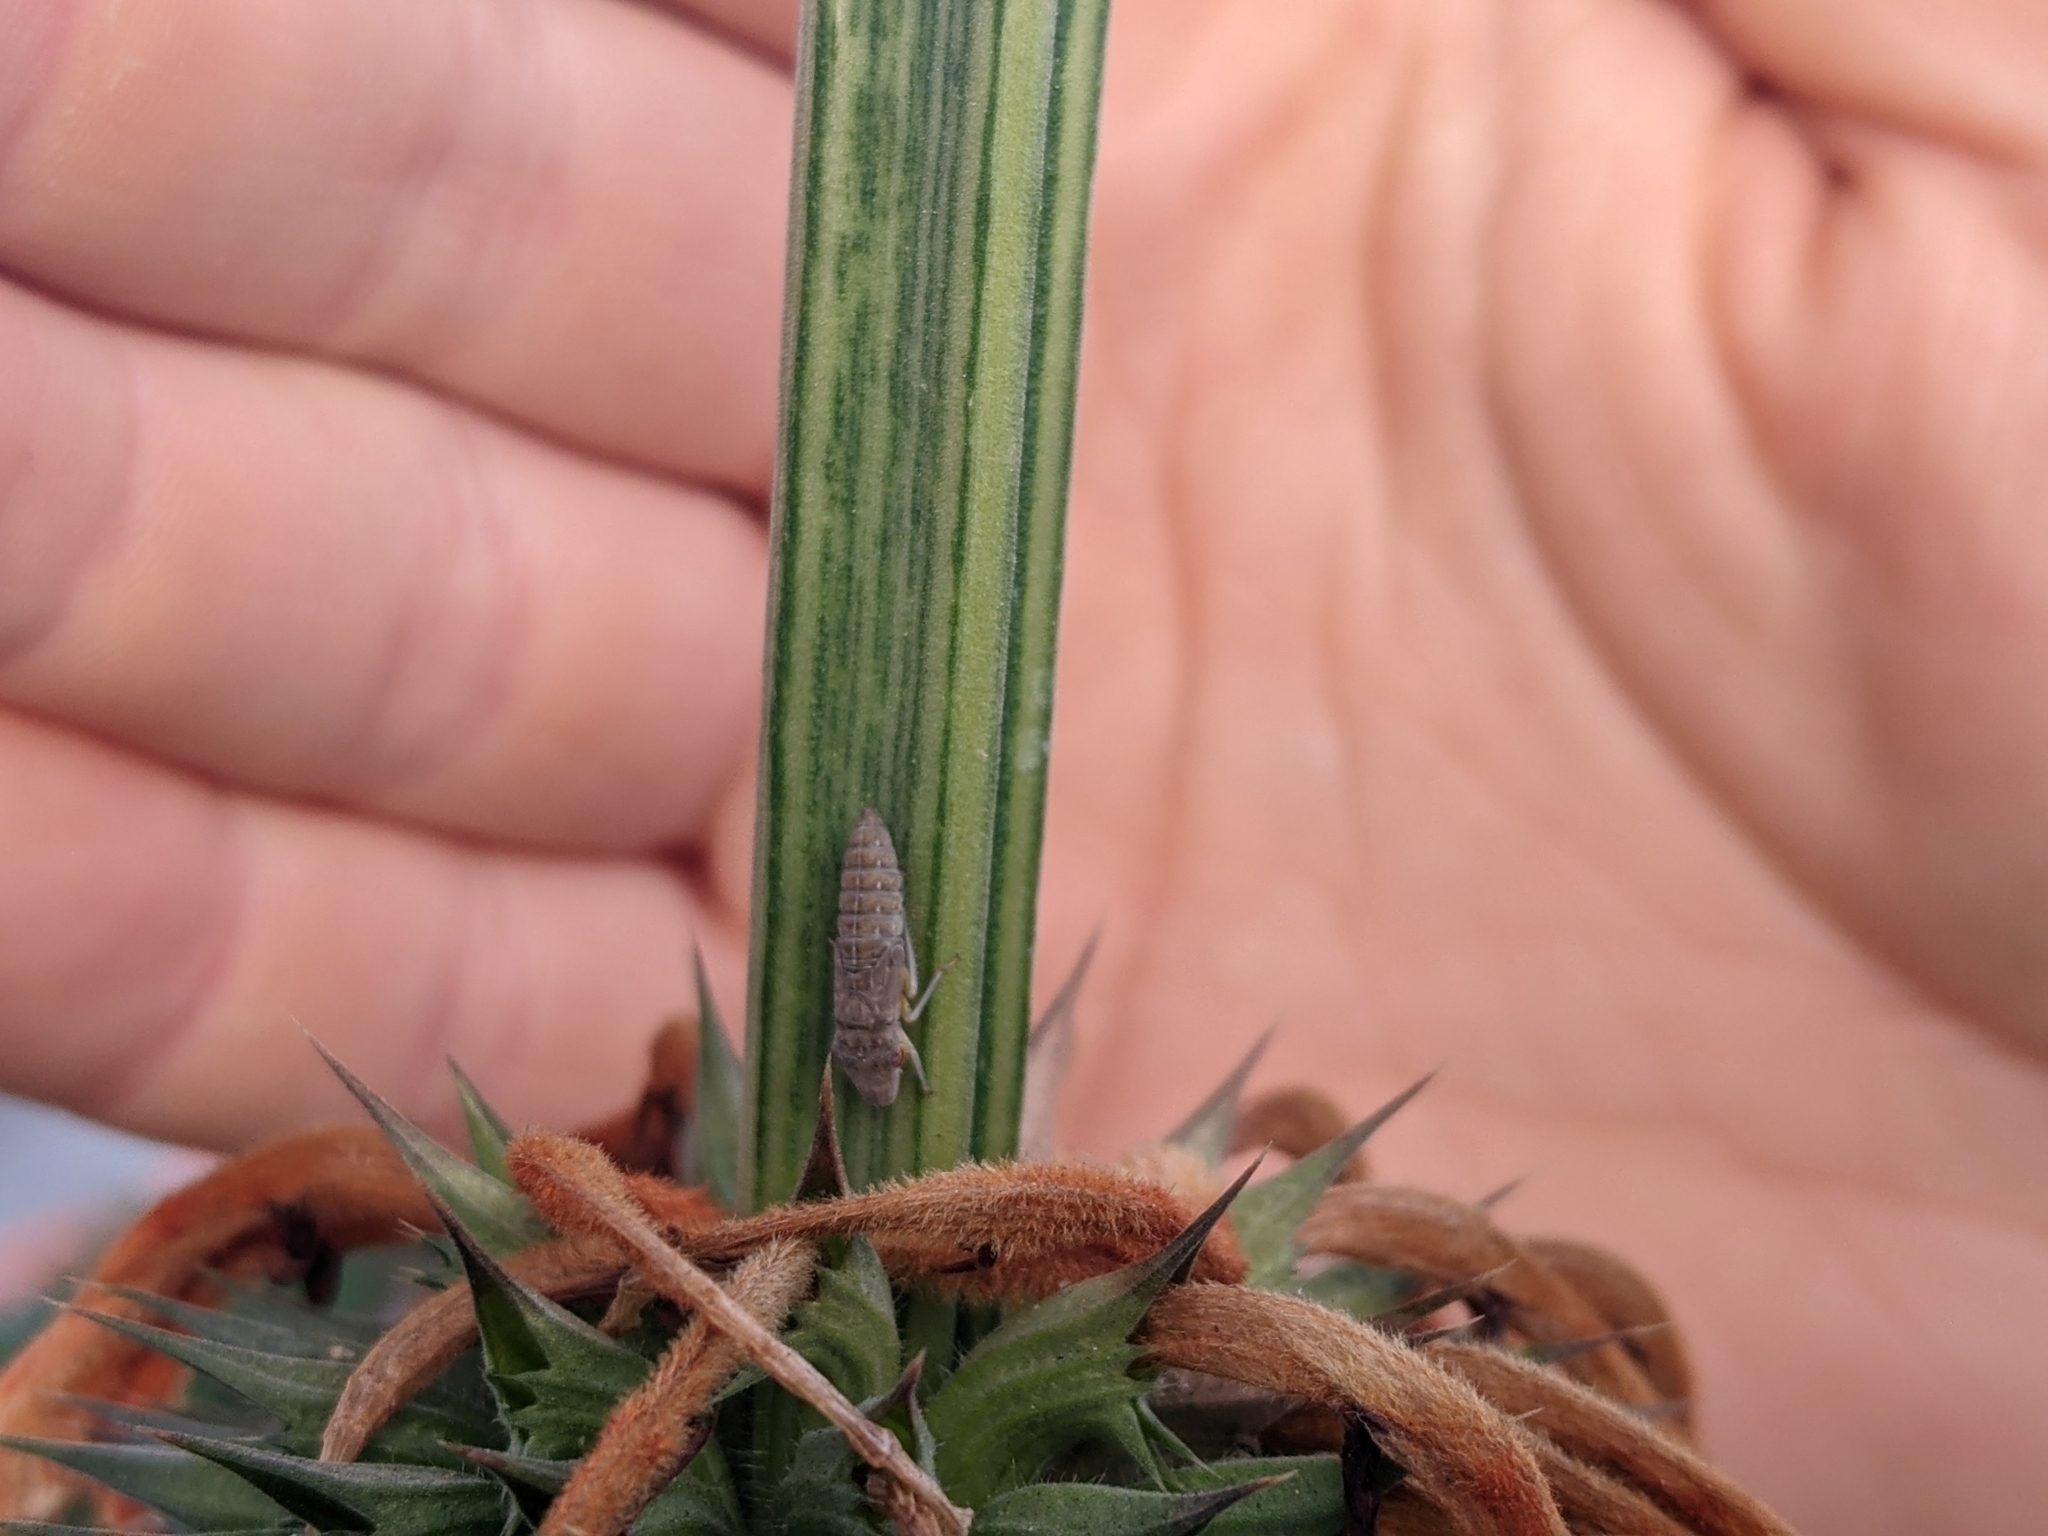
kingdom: Animalia
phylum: Arthropoda
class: Insecta
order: Hemiptera
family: Cicadellidae
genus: Homalodisca
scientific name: Homalodisca
